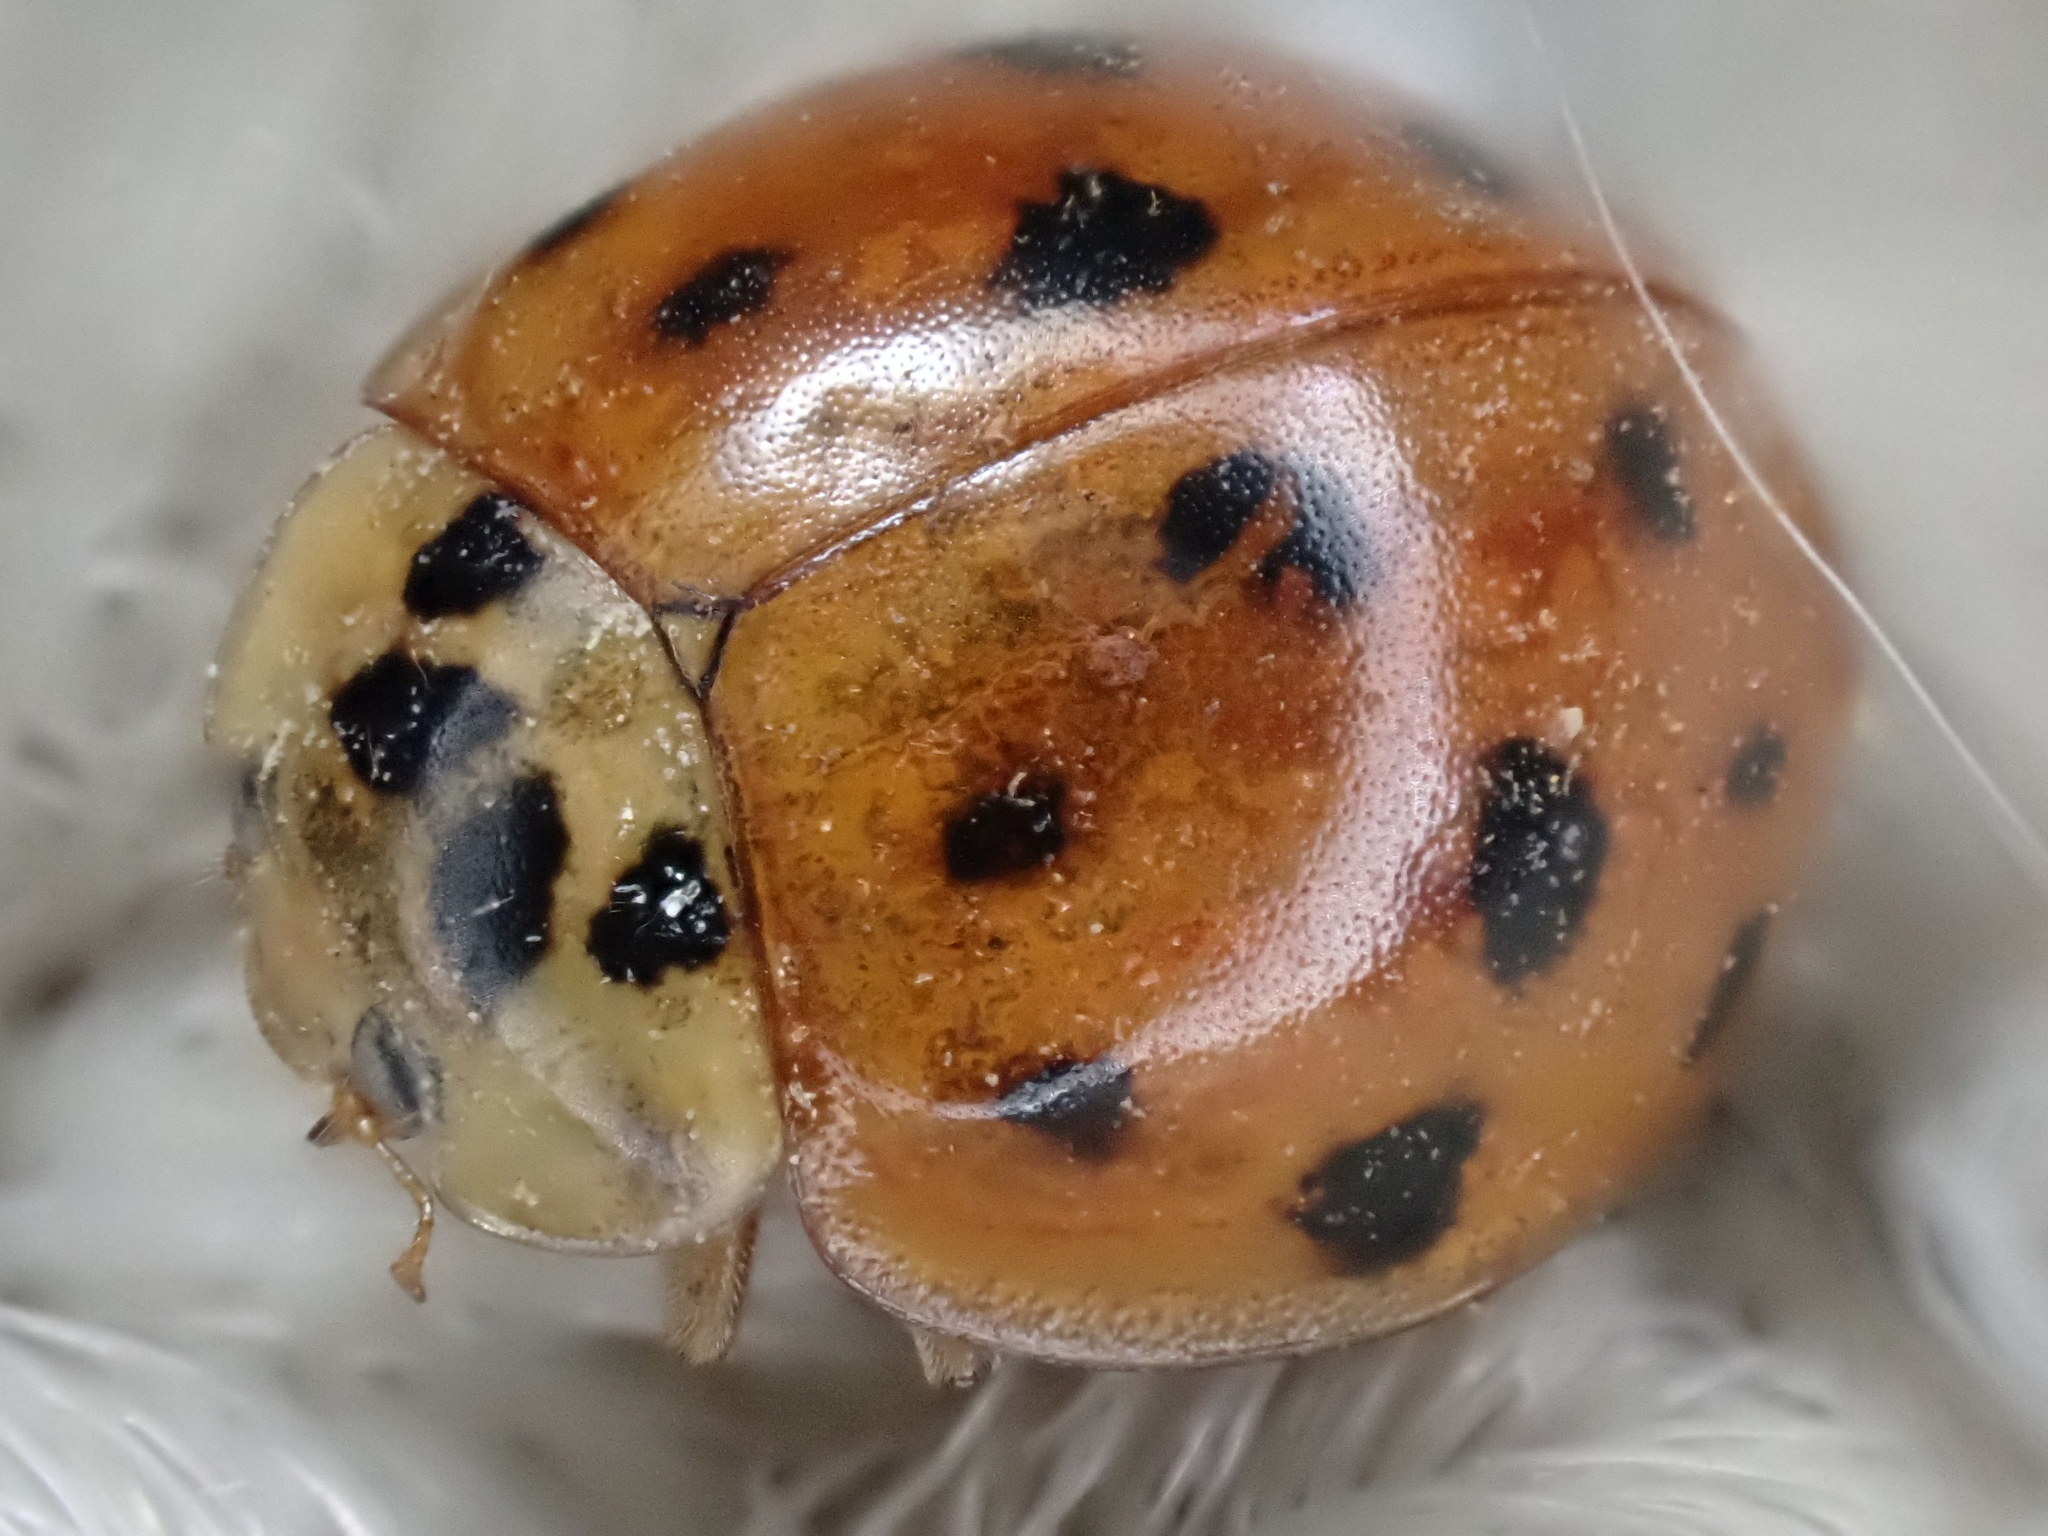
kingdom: Animalia
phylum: Arthropoda
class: Insecta
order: Coleoptera
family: Coccinellidae
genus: Harmonia
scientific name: Harmonia axyridis
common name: Harlequin ladybird
